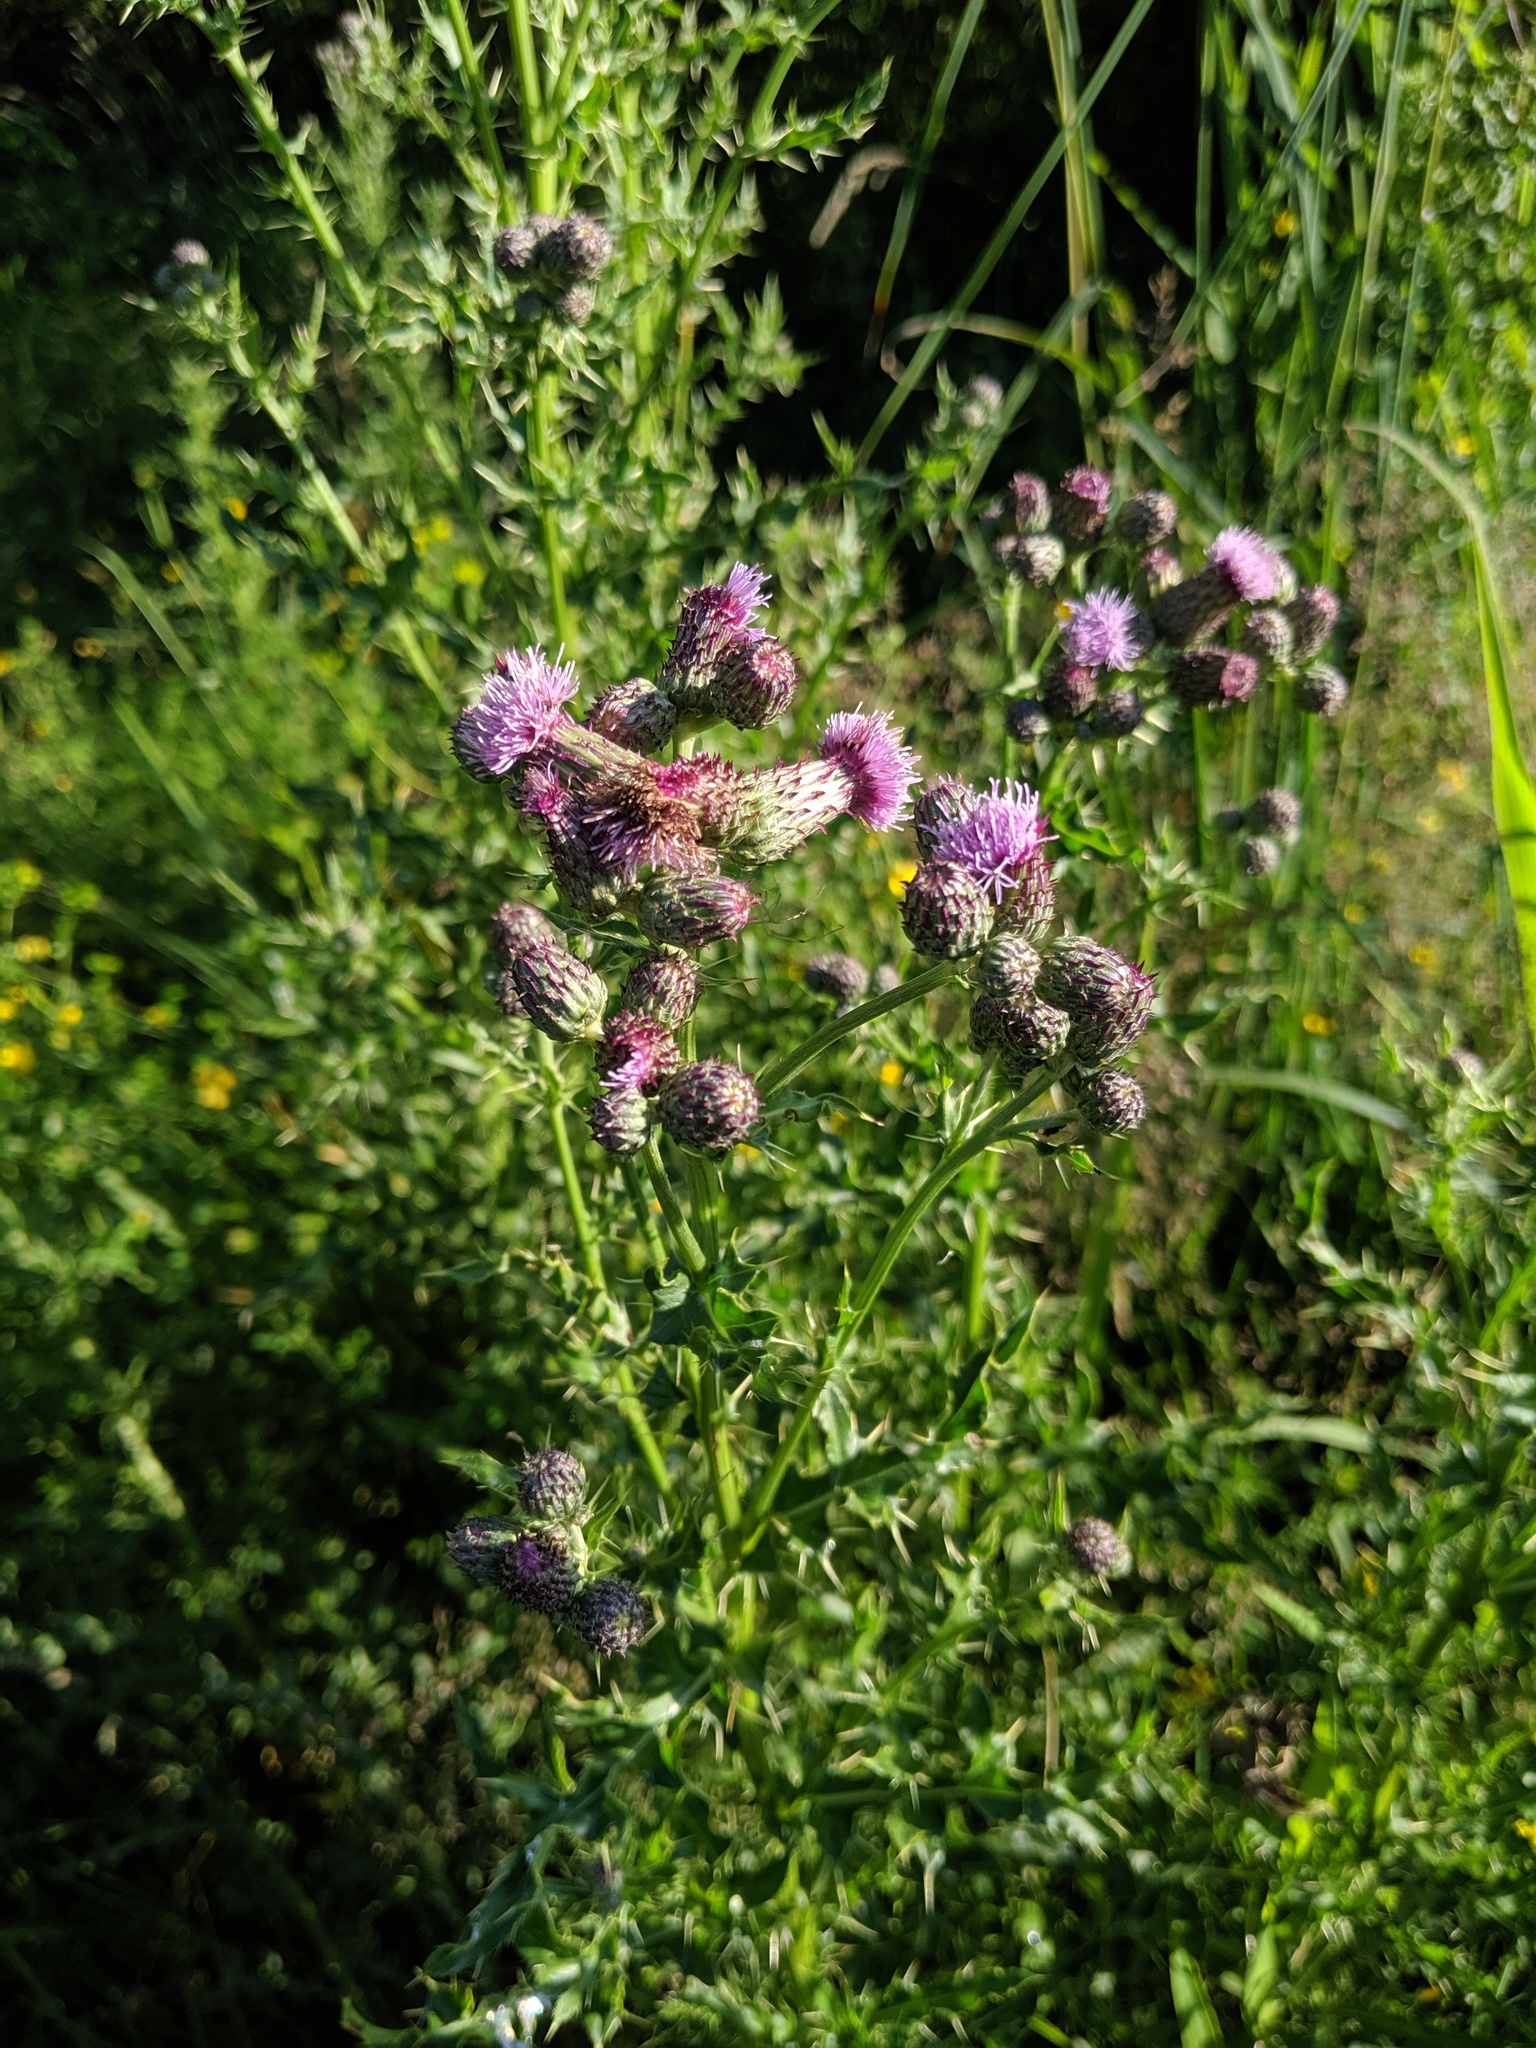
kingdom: Plantae
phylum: Tracheophyta
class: Magnoliopsida
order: Asterales
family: Asteraceae
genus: Cirsium
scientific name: Cirsium arvense
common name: Creeping thistle
